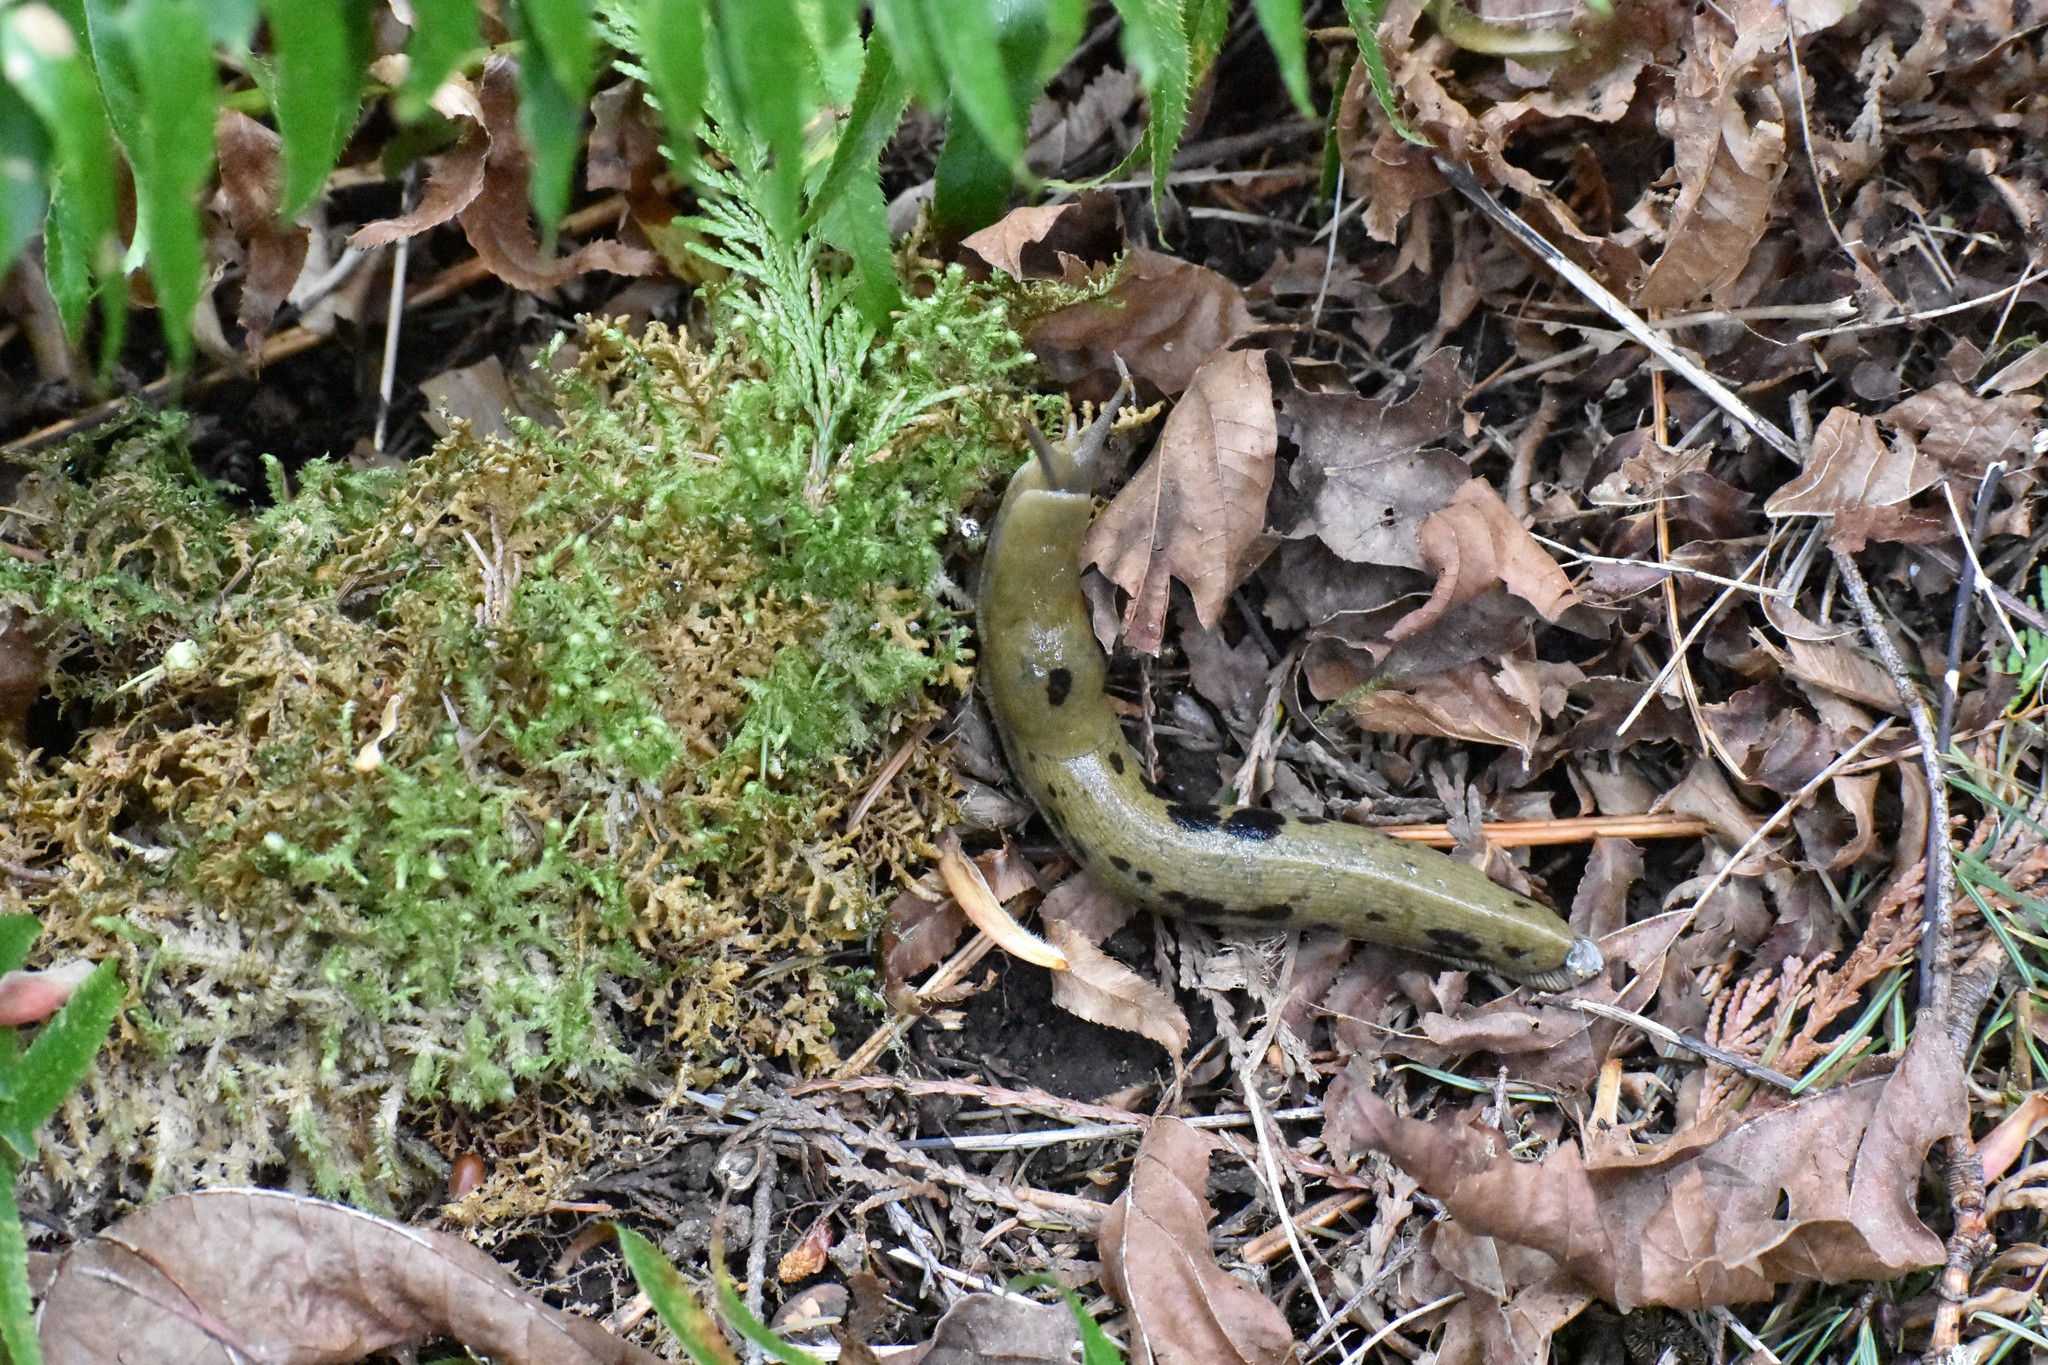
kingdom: Animalia
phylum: Mollusca
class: Gastropoda
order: Stylommatophora
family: Ariolimacidae
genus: Ariolimax
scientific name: Ariolimax columbianus
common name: Pacific banana slug
